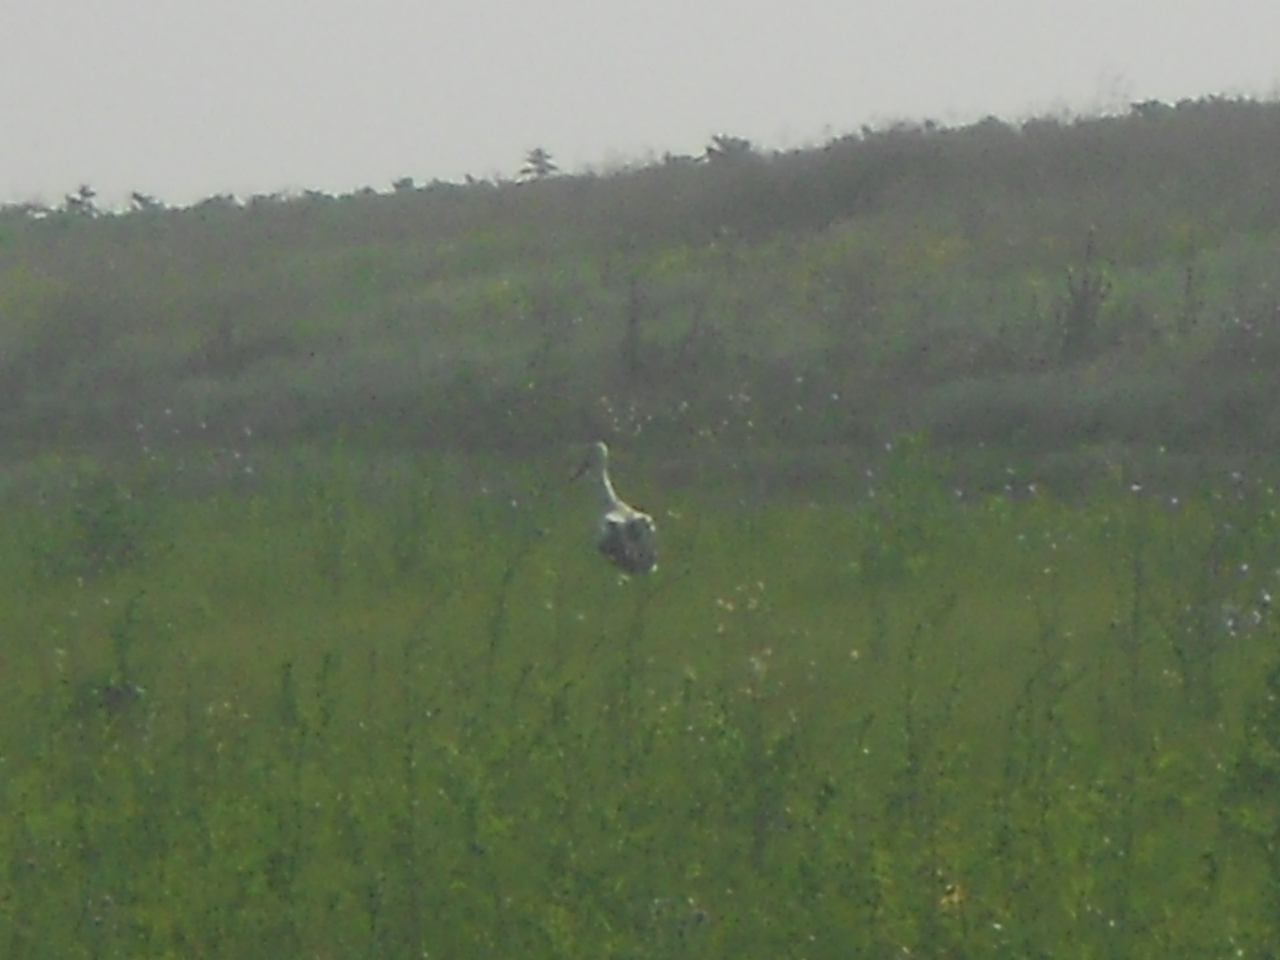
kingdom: Animalia
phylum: Chordata
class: Aves
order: Ciconiiformes
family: Ciconiidae
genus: Ciconia
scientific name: Ciconia ciconia
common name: White stork
